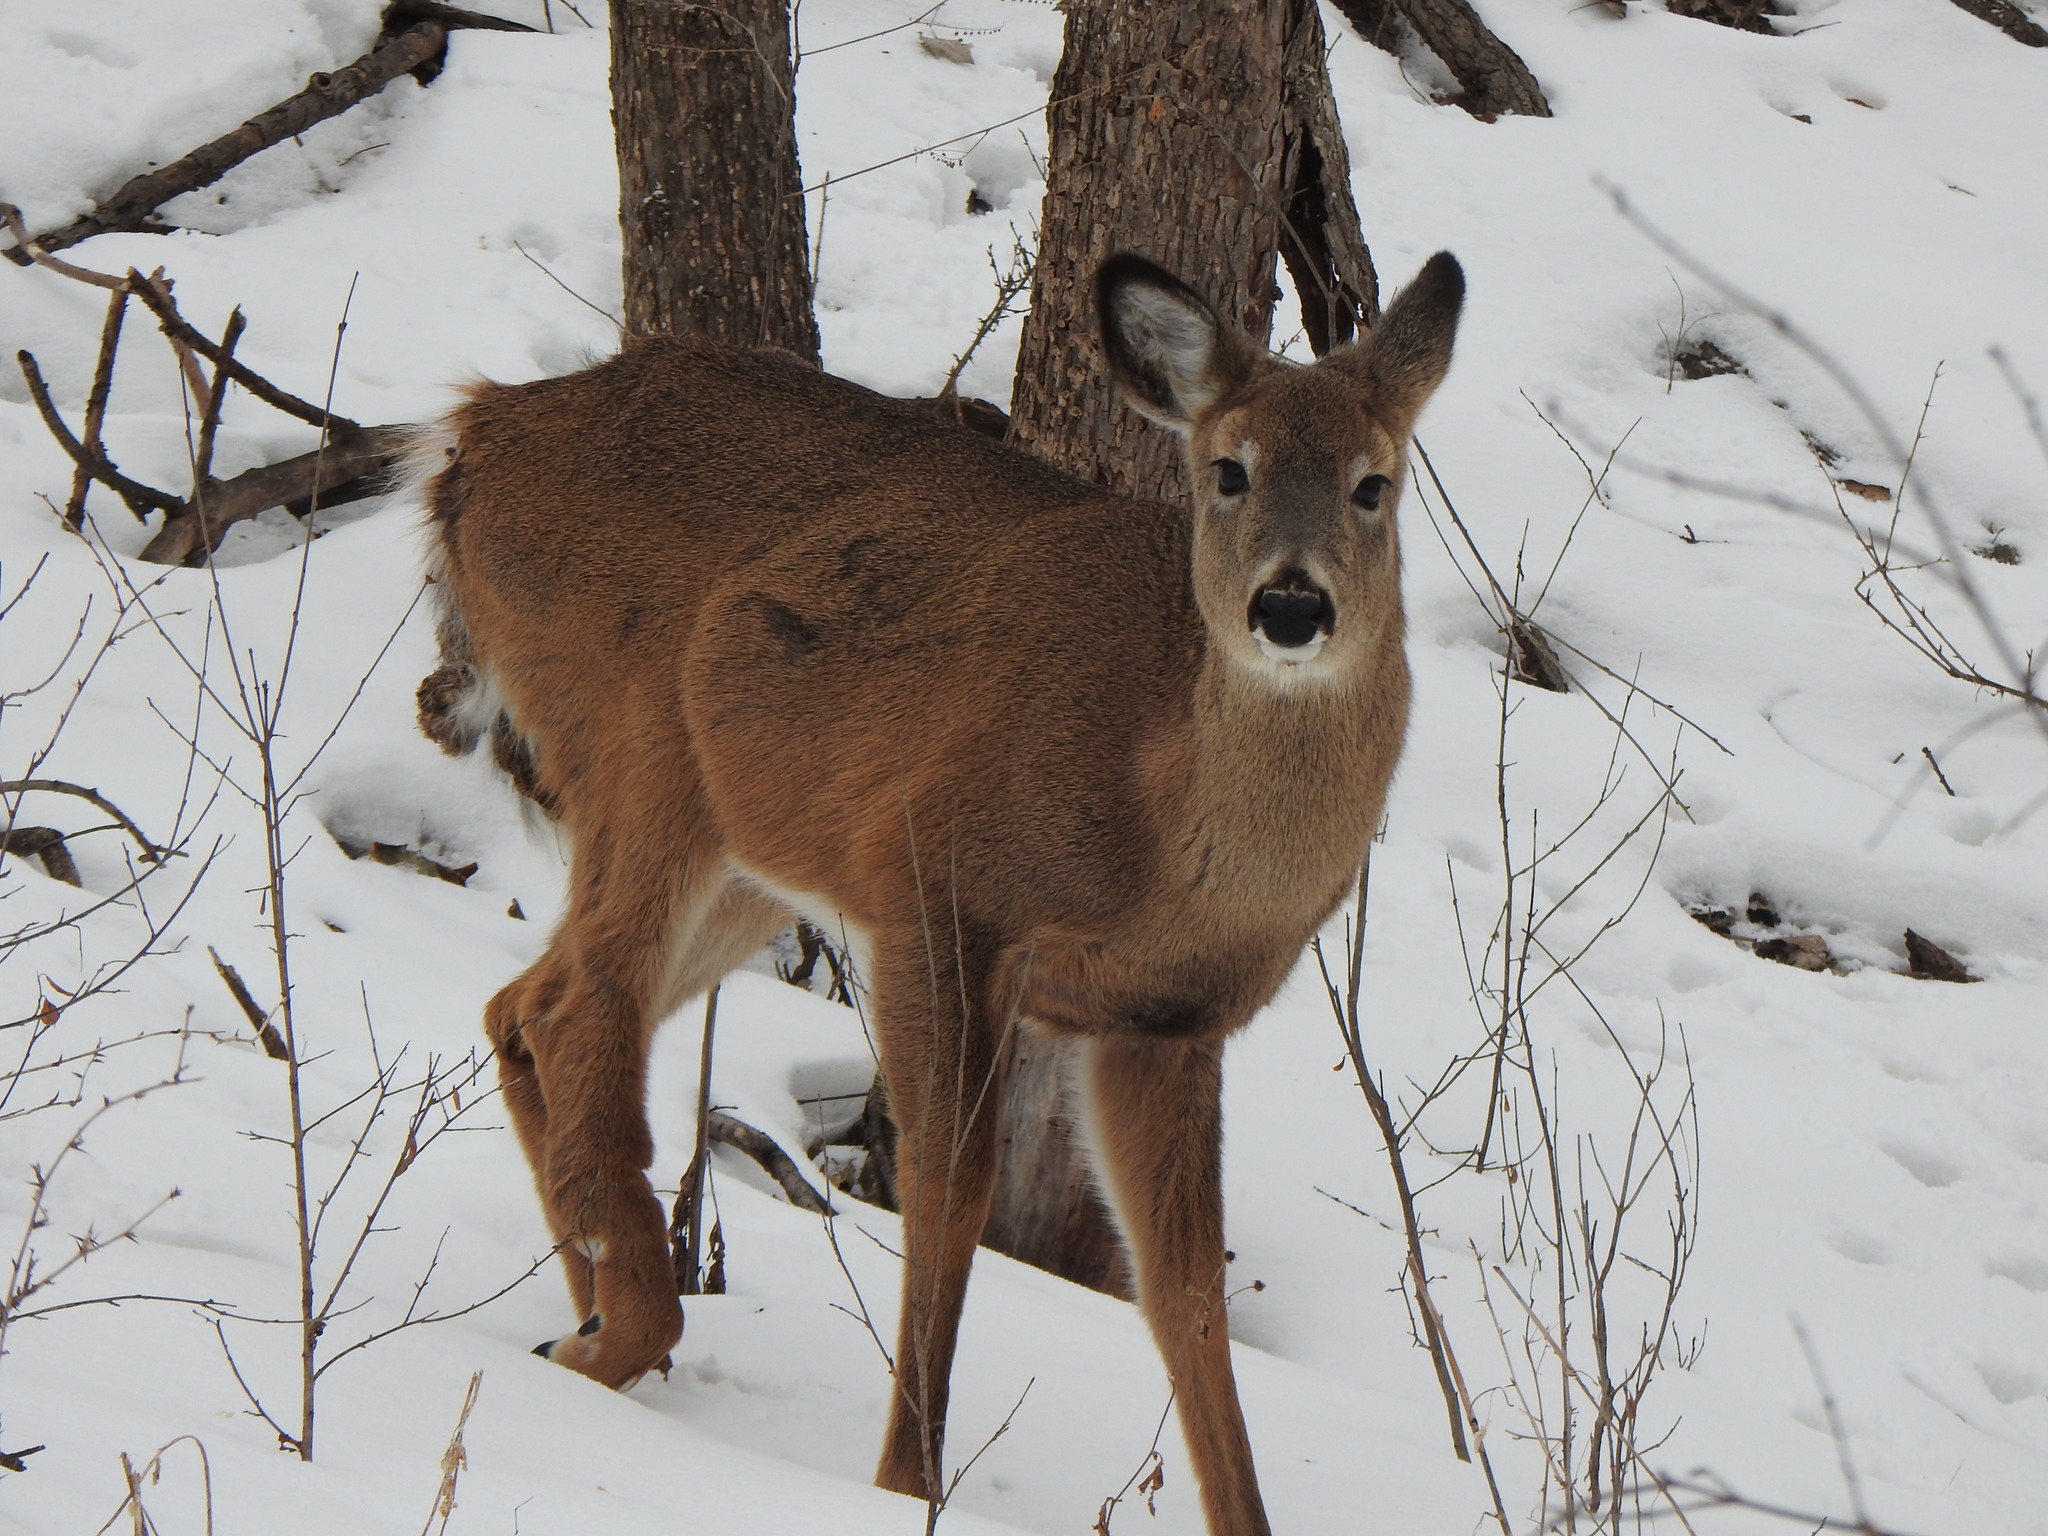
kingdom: Animalia
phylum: Chordata
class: Mammalia
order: Artiodactyla
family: Cervidae
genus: Odocoileus
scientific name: Odocoileus virginianus
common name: White-tailed deer
